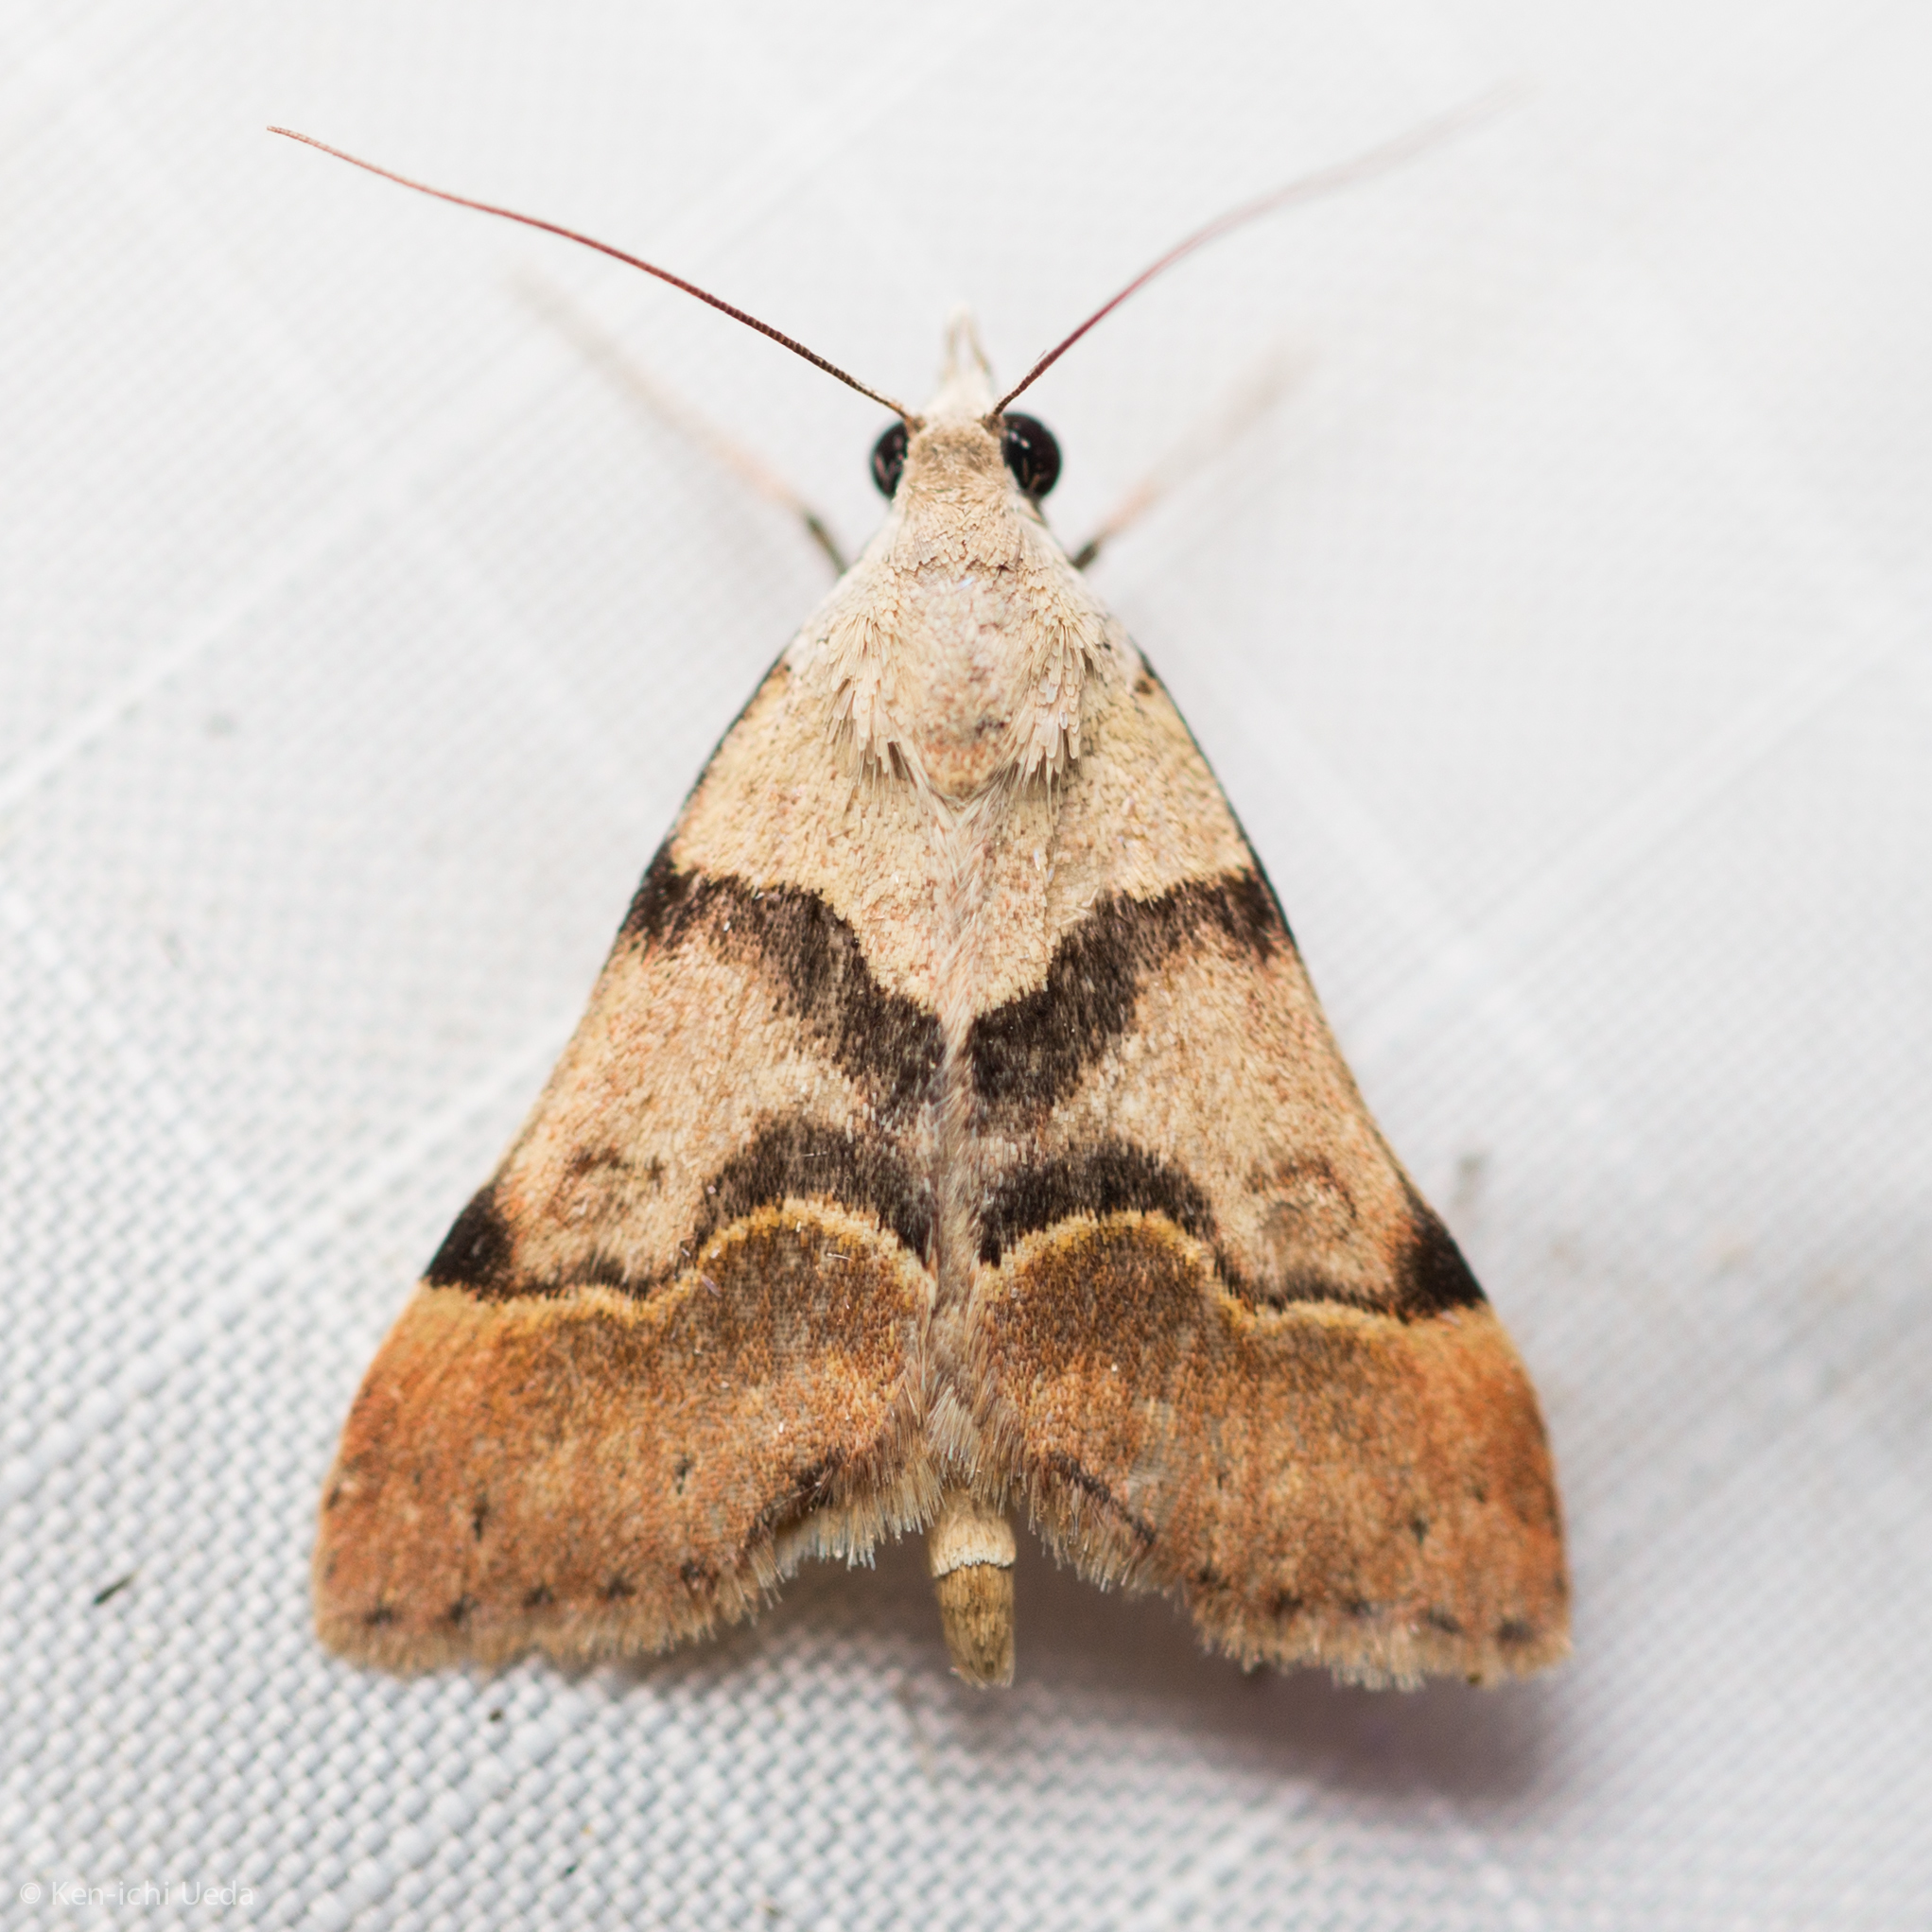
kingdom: Animalia
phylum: Arthropoda
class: Insecta
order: Lepidoptera
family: Erebidae
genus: Hemeroplanis
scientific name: Hemeroplanis incusalis
